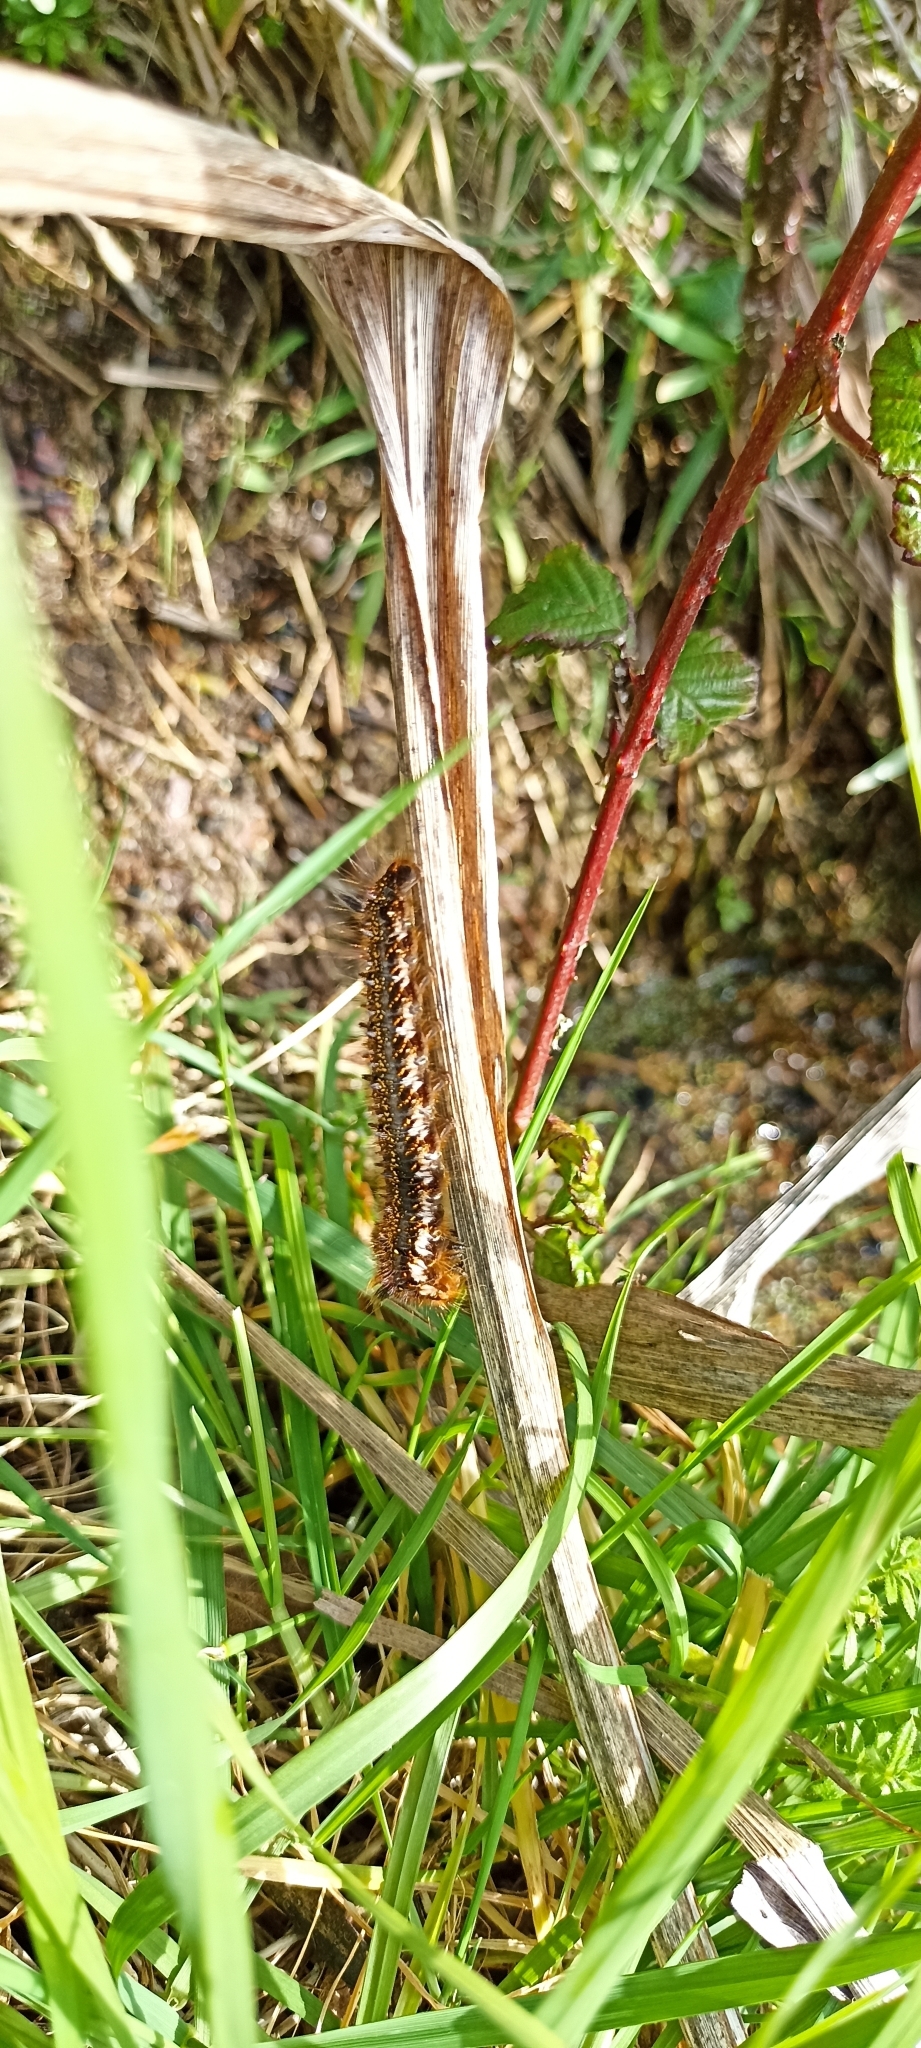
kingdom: Animalia
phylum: Arthropoda
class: Insecta
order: Lepidoptera
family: Lasiocampidae
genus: Euthrix
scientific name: Euthrix potatoria
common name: Drinker
